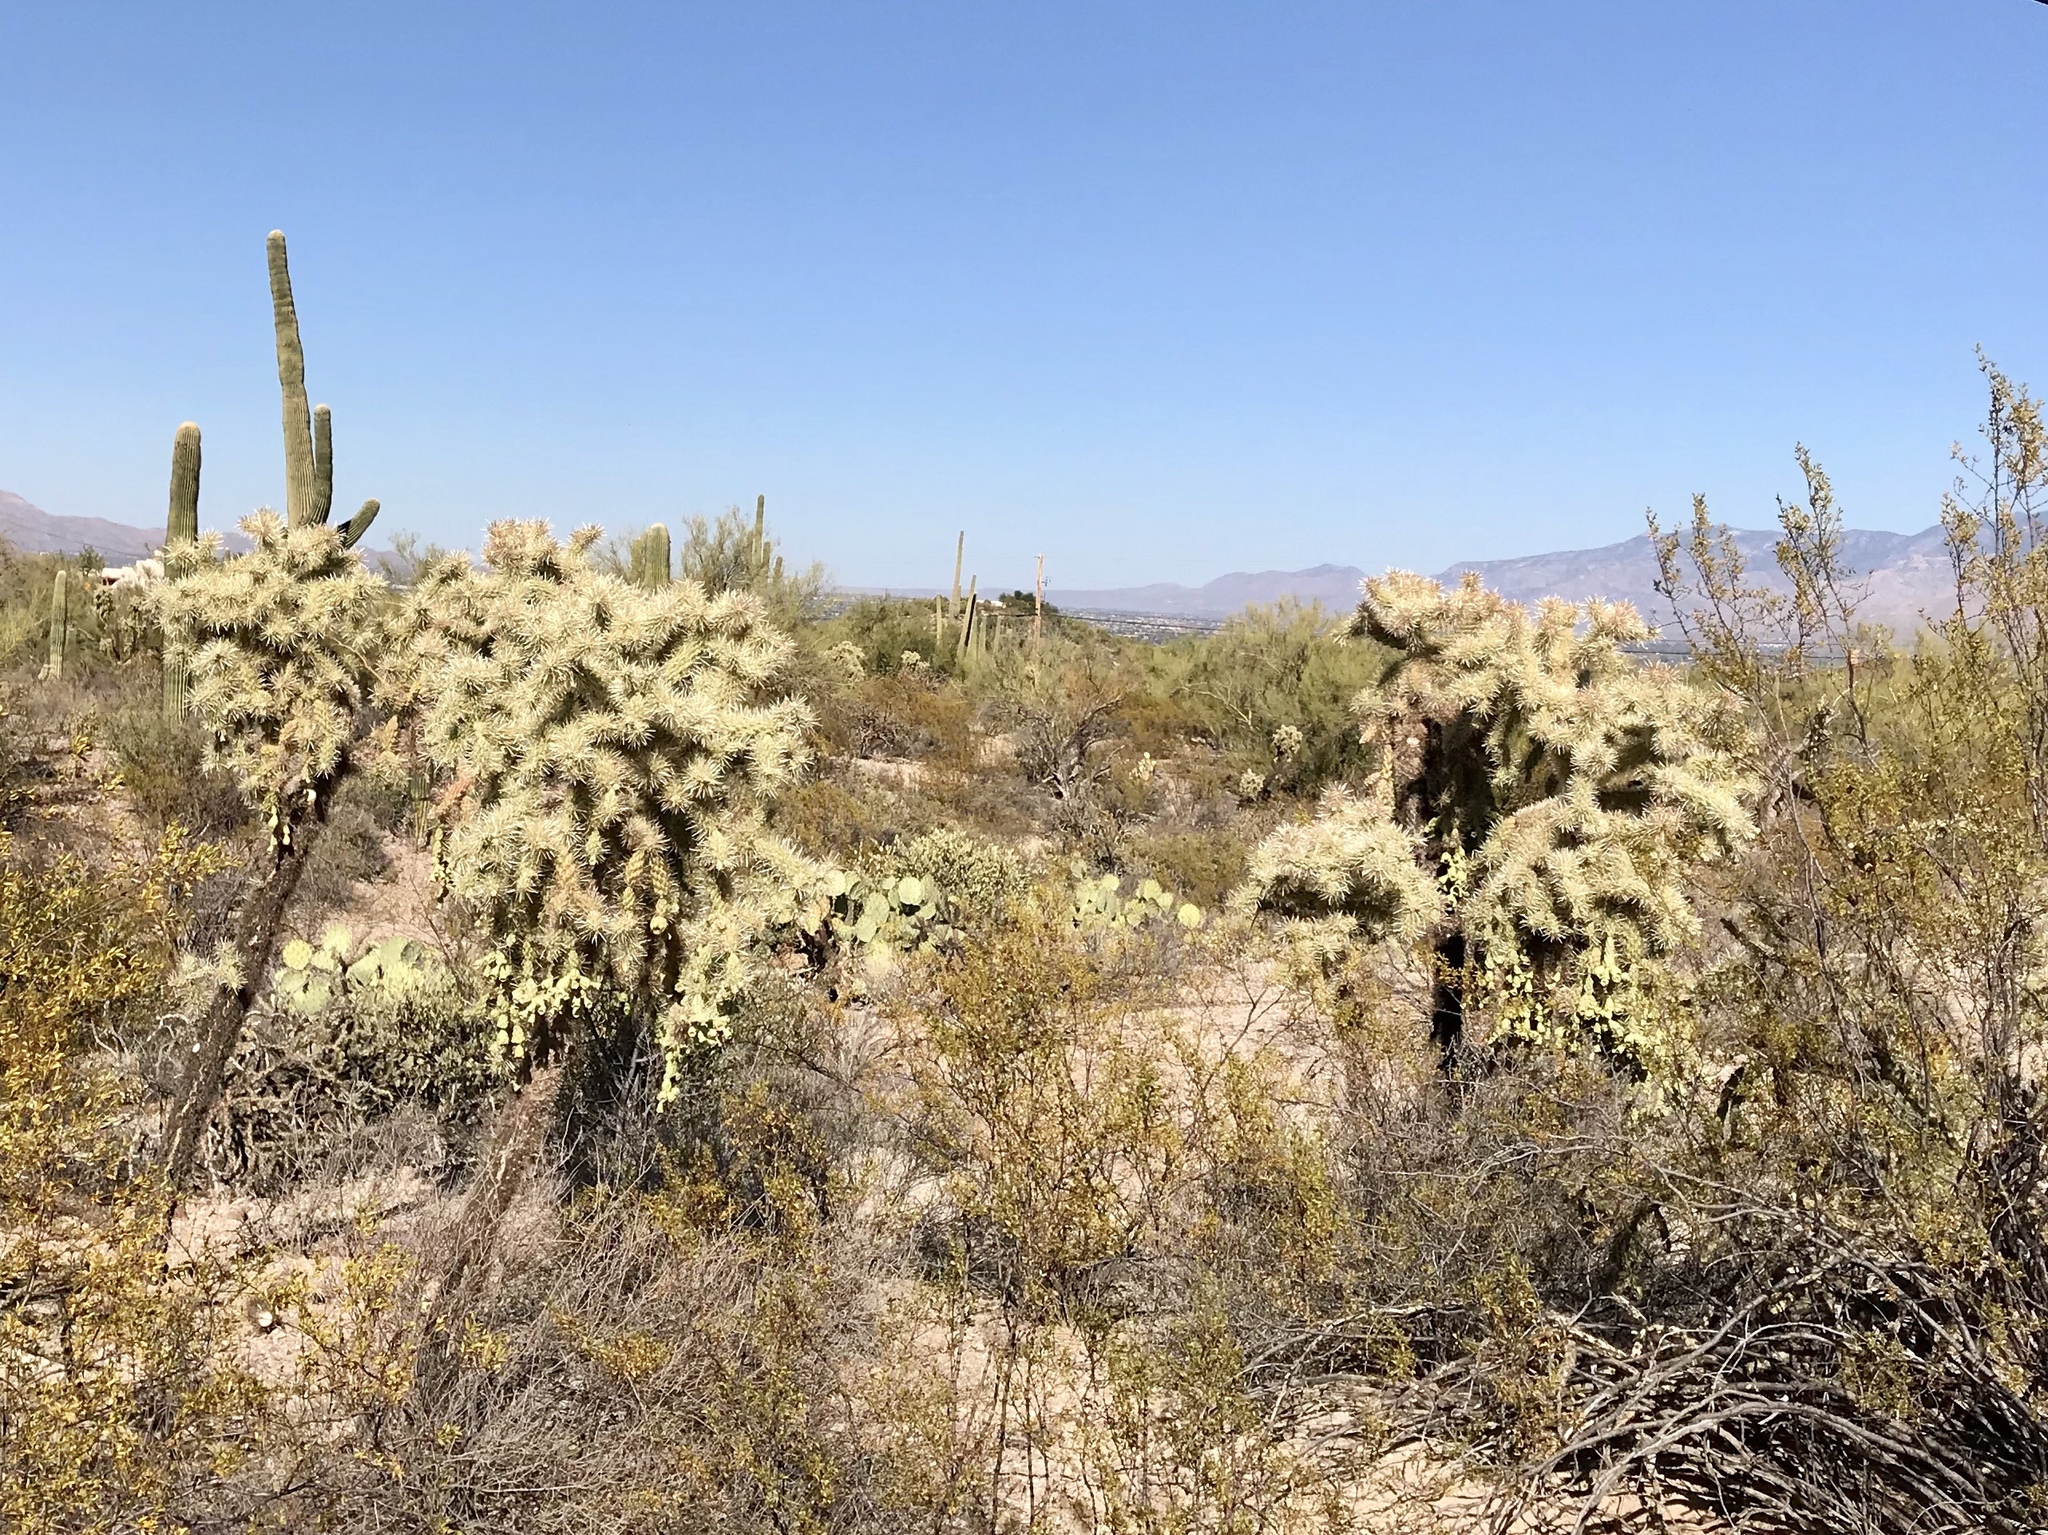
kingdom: Plantae
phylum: Tracheophyta
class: Magnoliopsida
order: Caryophyllales
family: Cactaceae
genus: Cylindropuntia
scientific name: Cylindropuntia fulgida
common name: Jumping cholla
